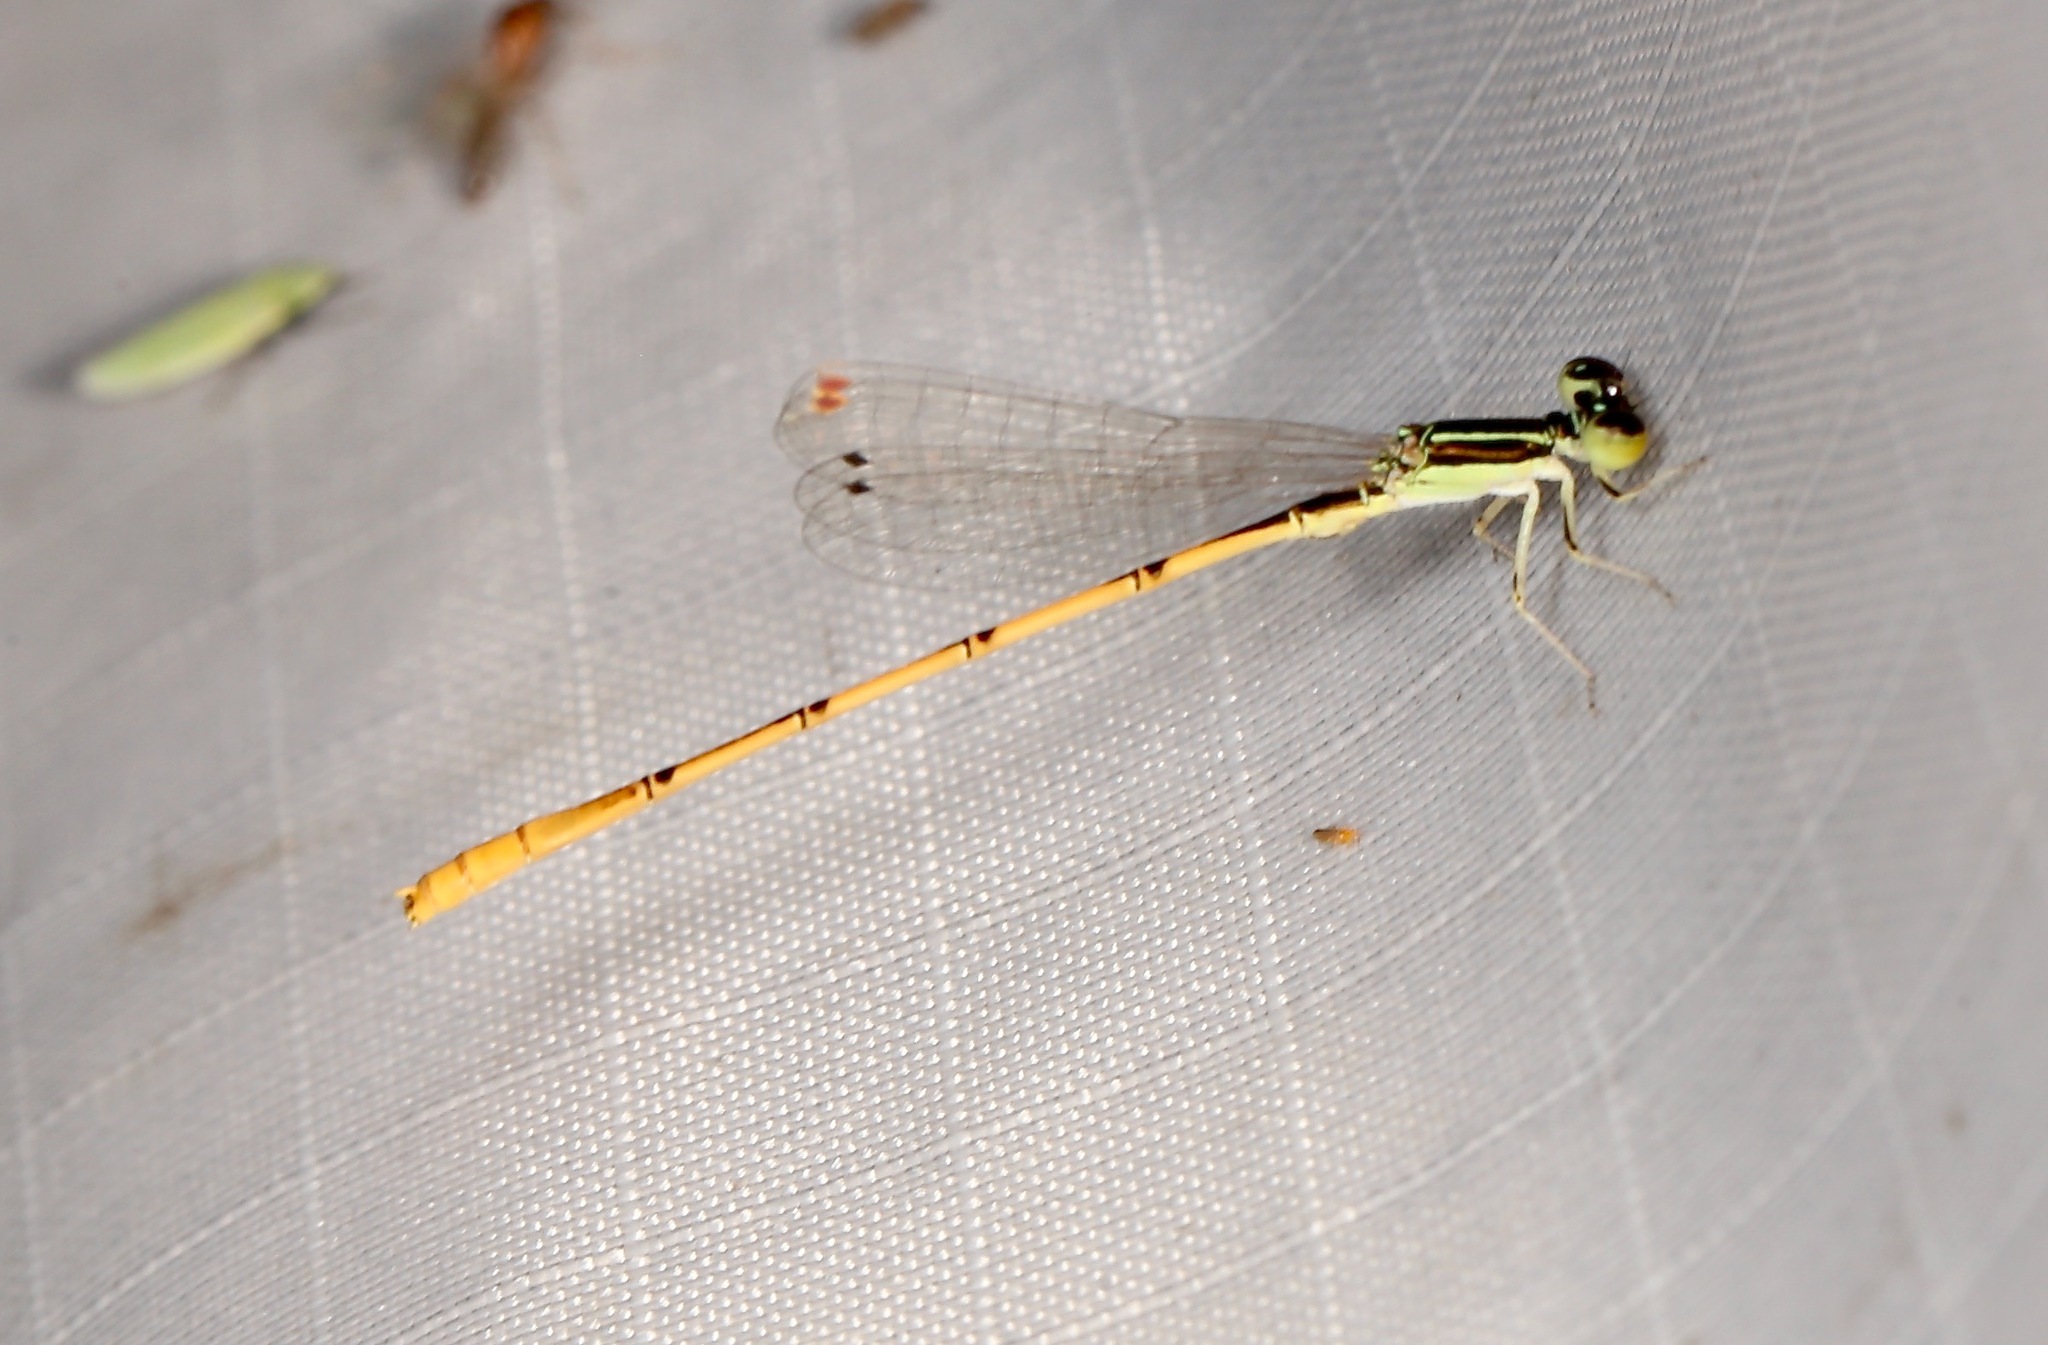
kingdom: Animalia
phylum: Arthropoda
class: Insecta
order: Odonata
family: Coenagrionidae
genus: Ischnura
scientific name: Ischnura hastata
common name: Citrine forktail
